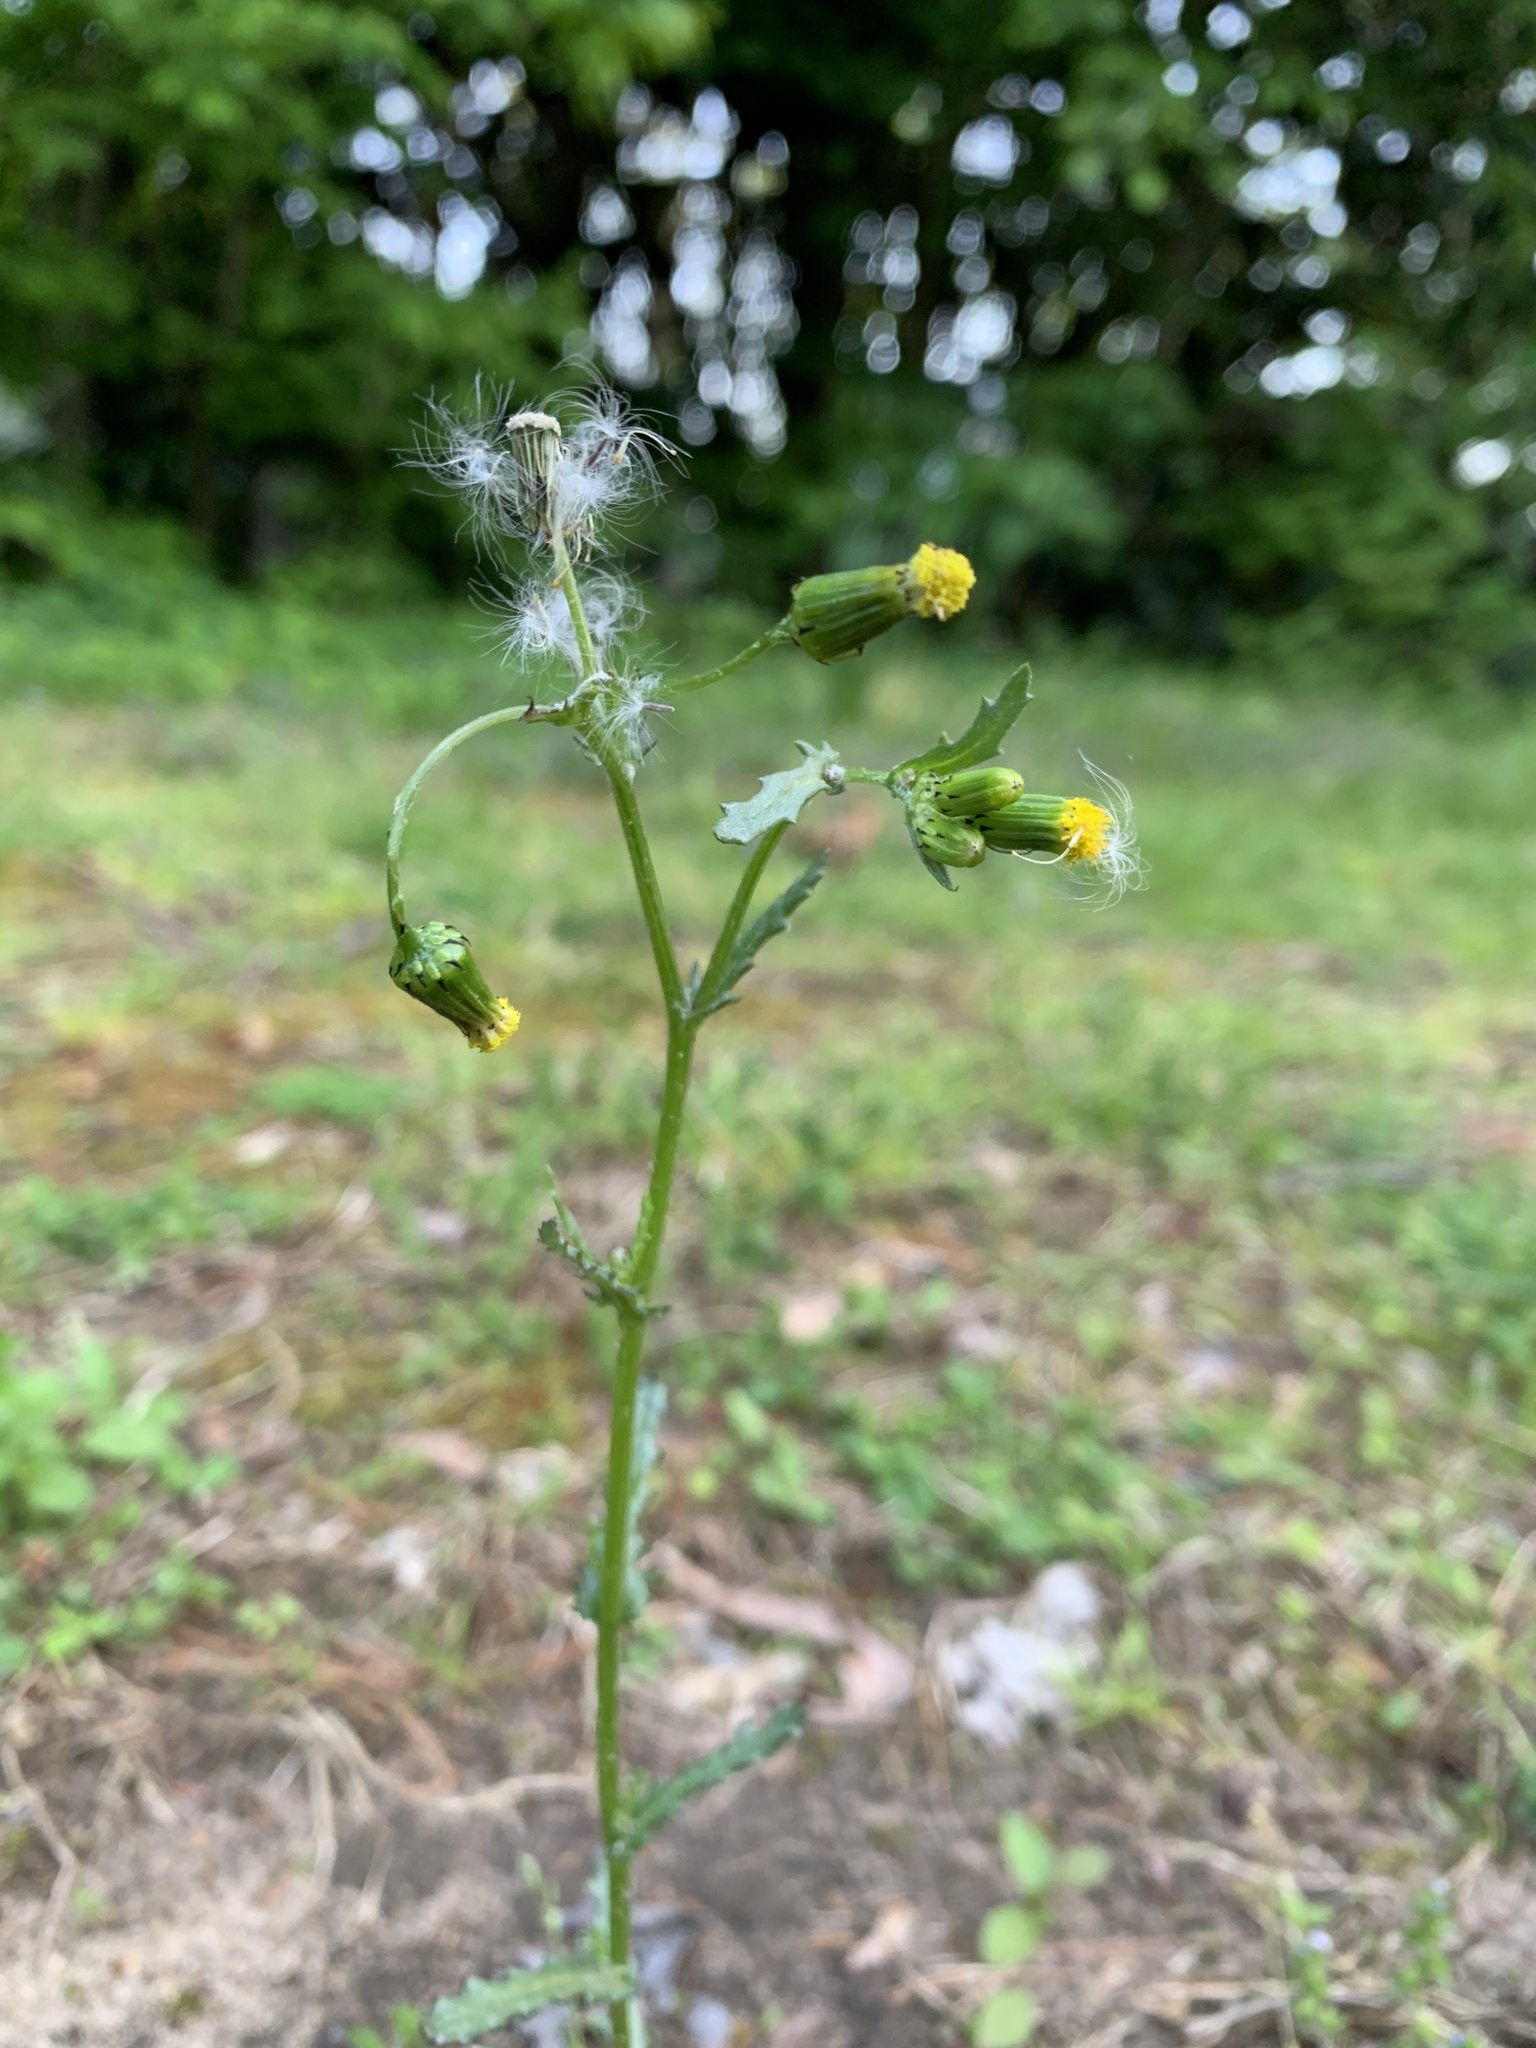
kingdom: Plantae
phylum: Tracheophyta
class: Magnoliopsida
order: Asterales
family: Asteraceae
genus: Senecio
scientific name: Senecio vulgaris
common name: Old-man-in-the-spring
